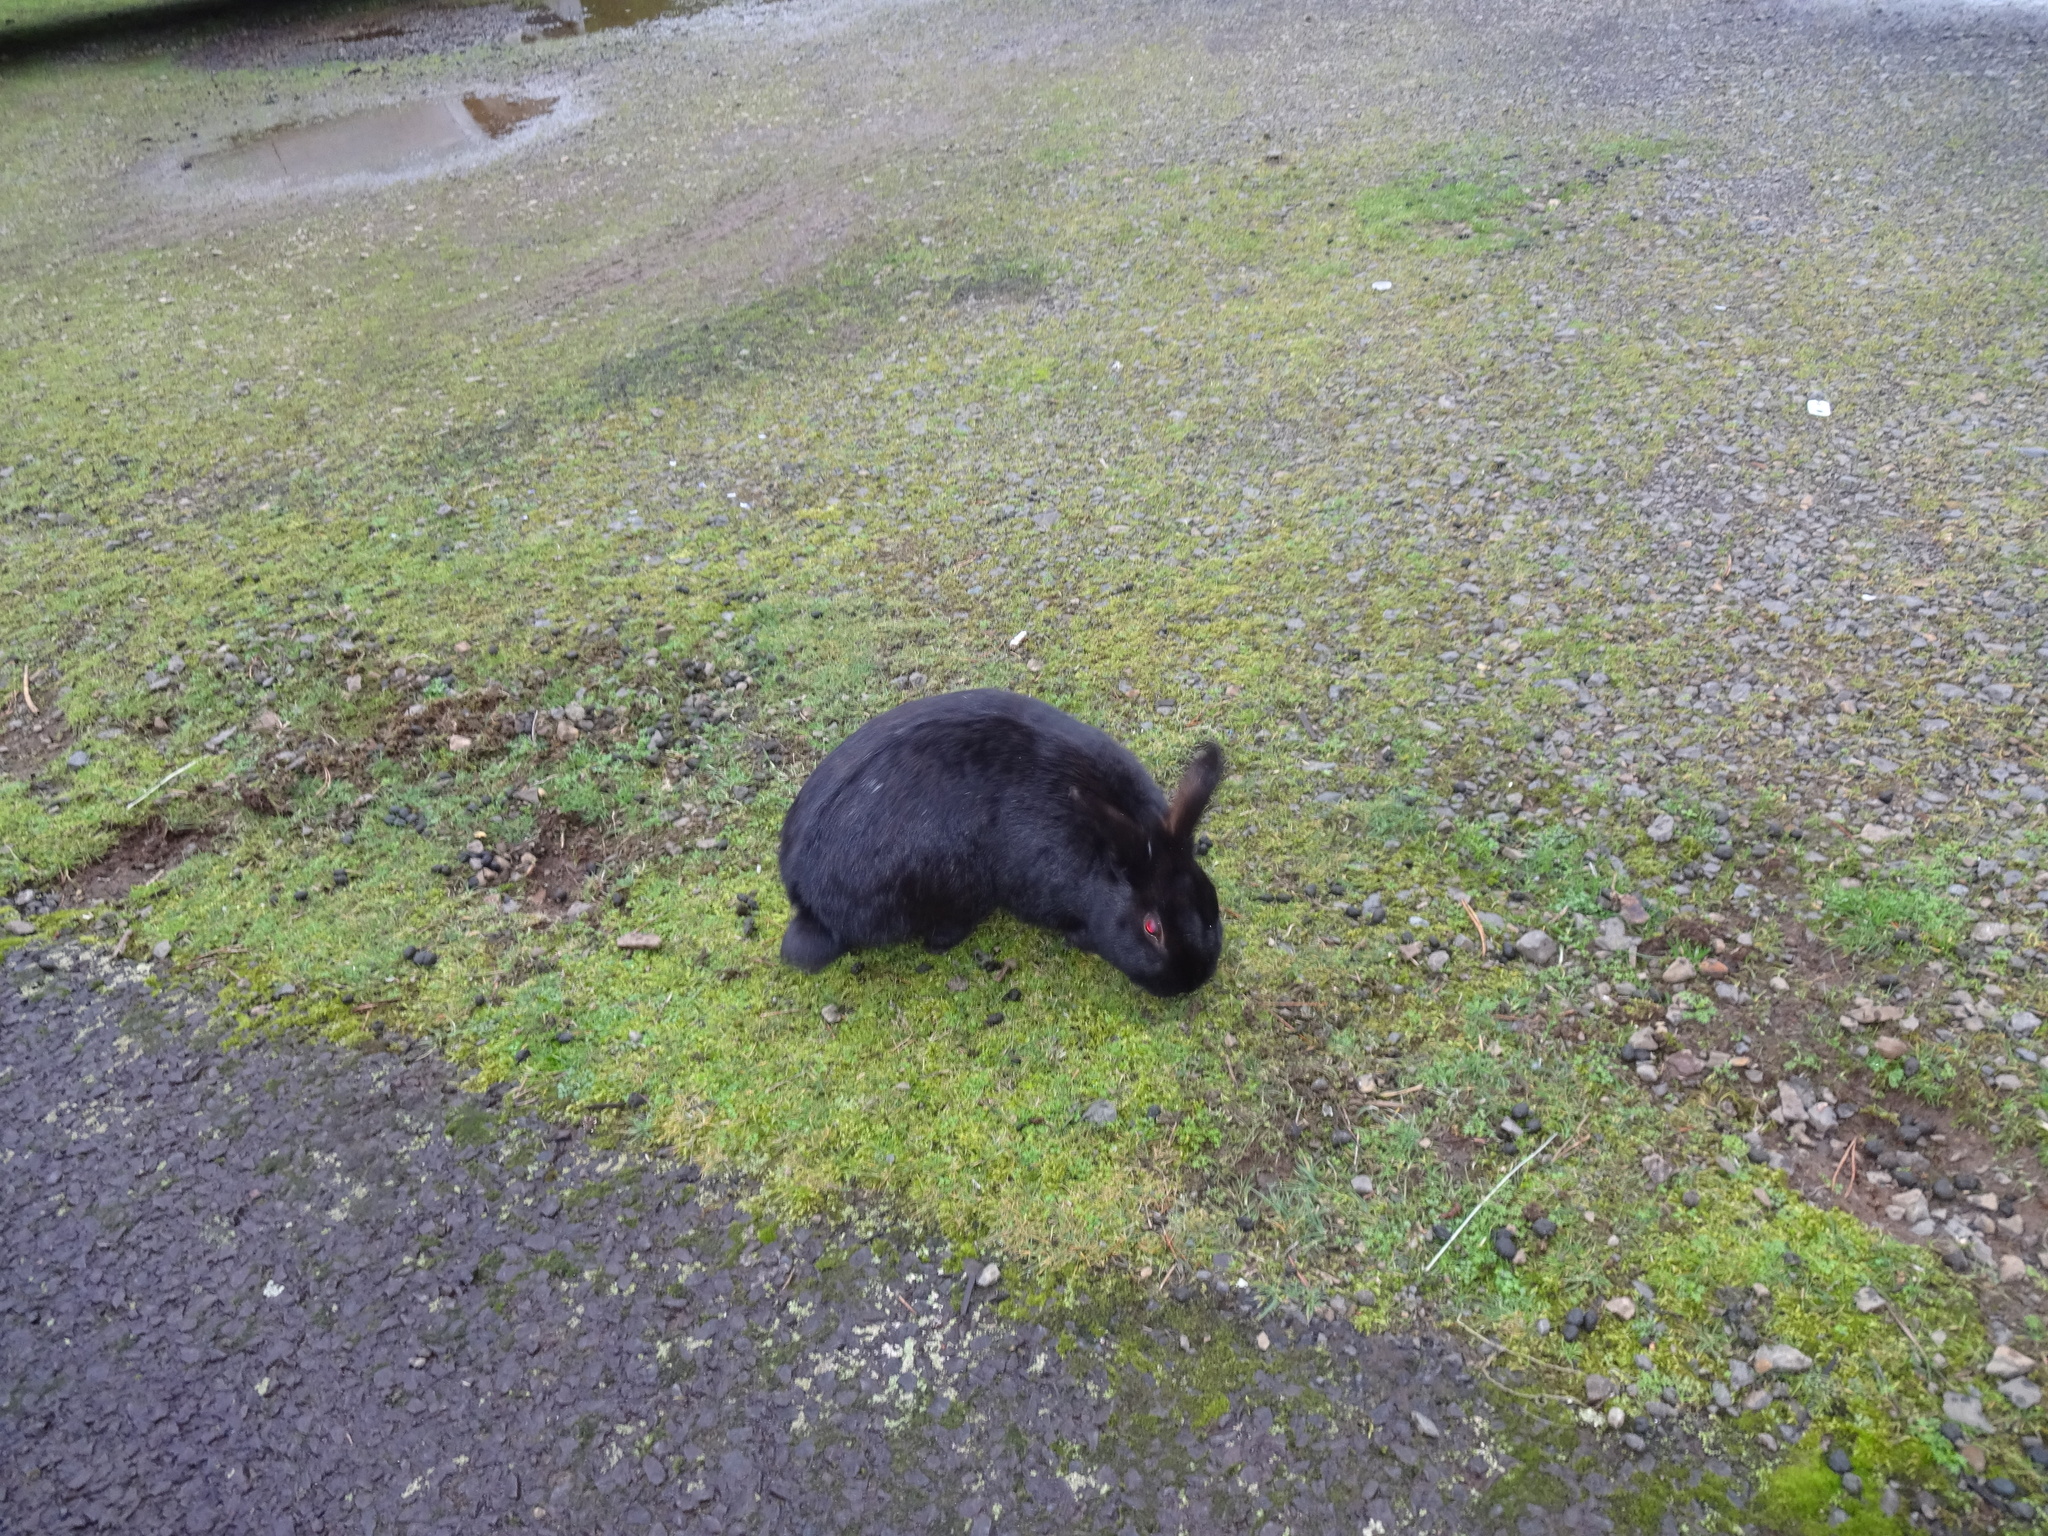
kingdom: Animalia
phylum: Chordata
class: Mammalia
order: Lagomorpha
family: Leporidae
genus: Oryctolagus
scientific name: Oryctolagus cuniculus
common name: European rabbit
